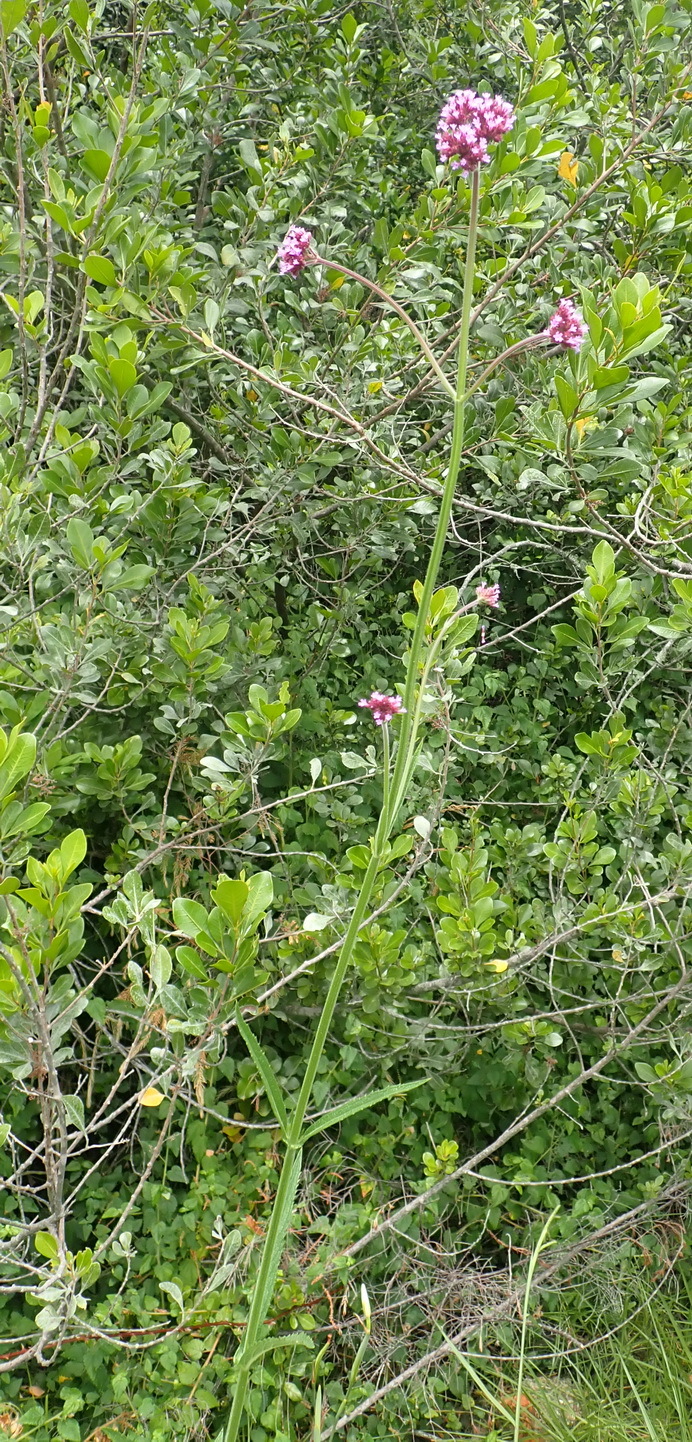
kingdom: Plantae
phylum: Tracheophyta
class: Magnoliopsida
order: Lamiales
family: Verbenaceae
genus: Verbena
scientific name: Verbena bonariensis
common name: Purpletop vervain
